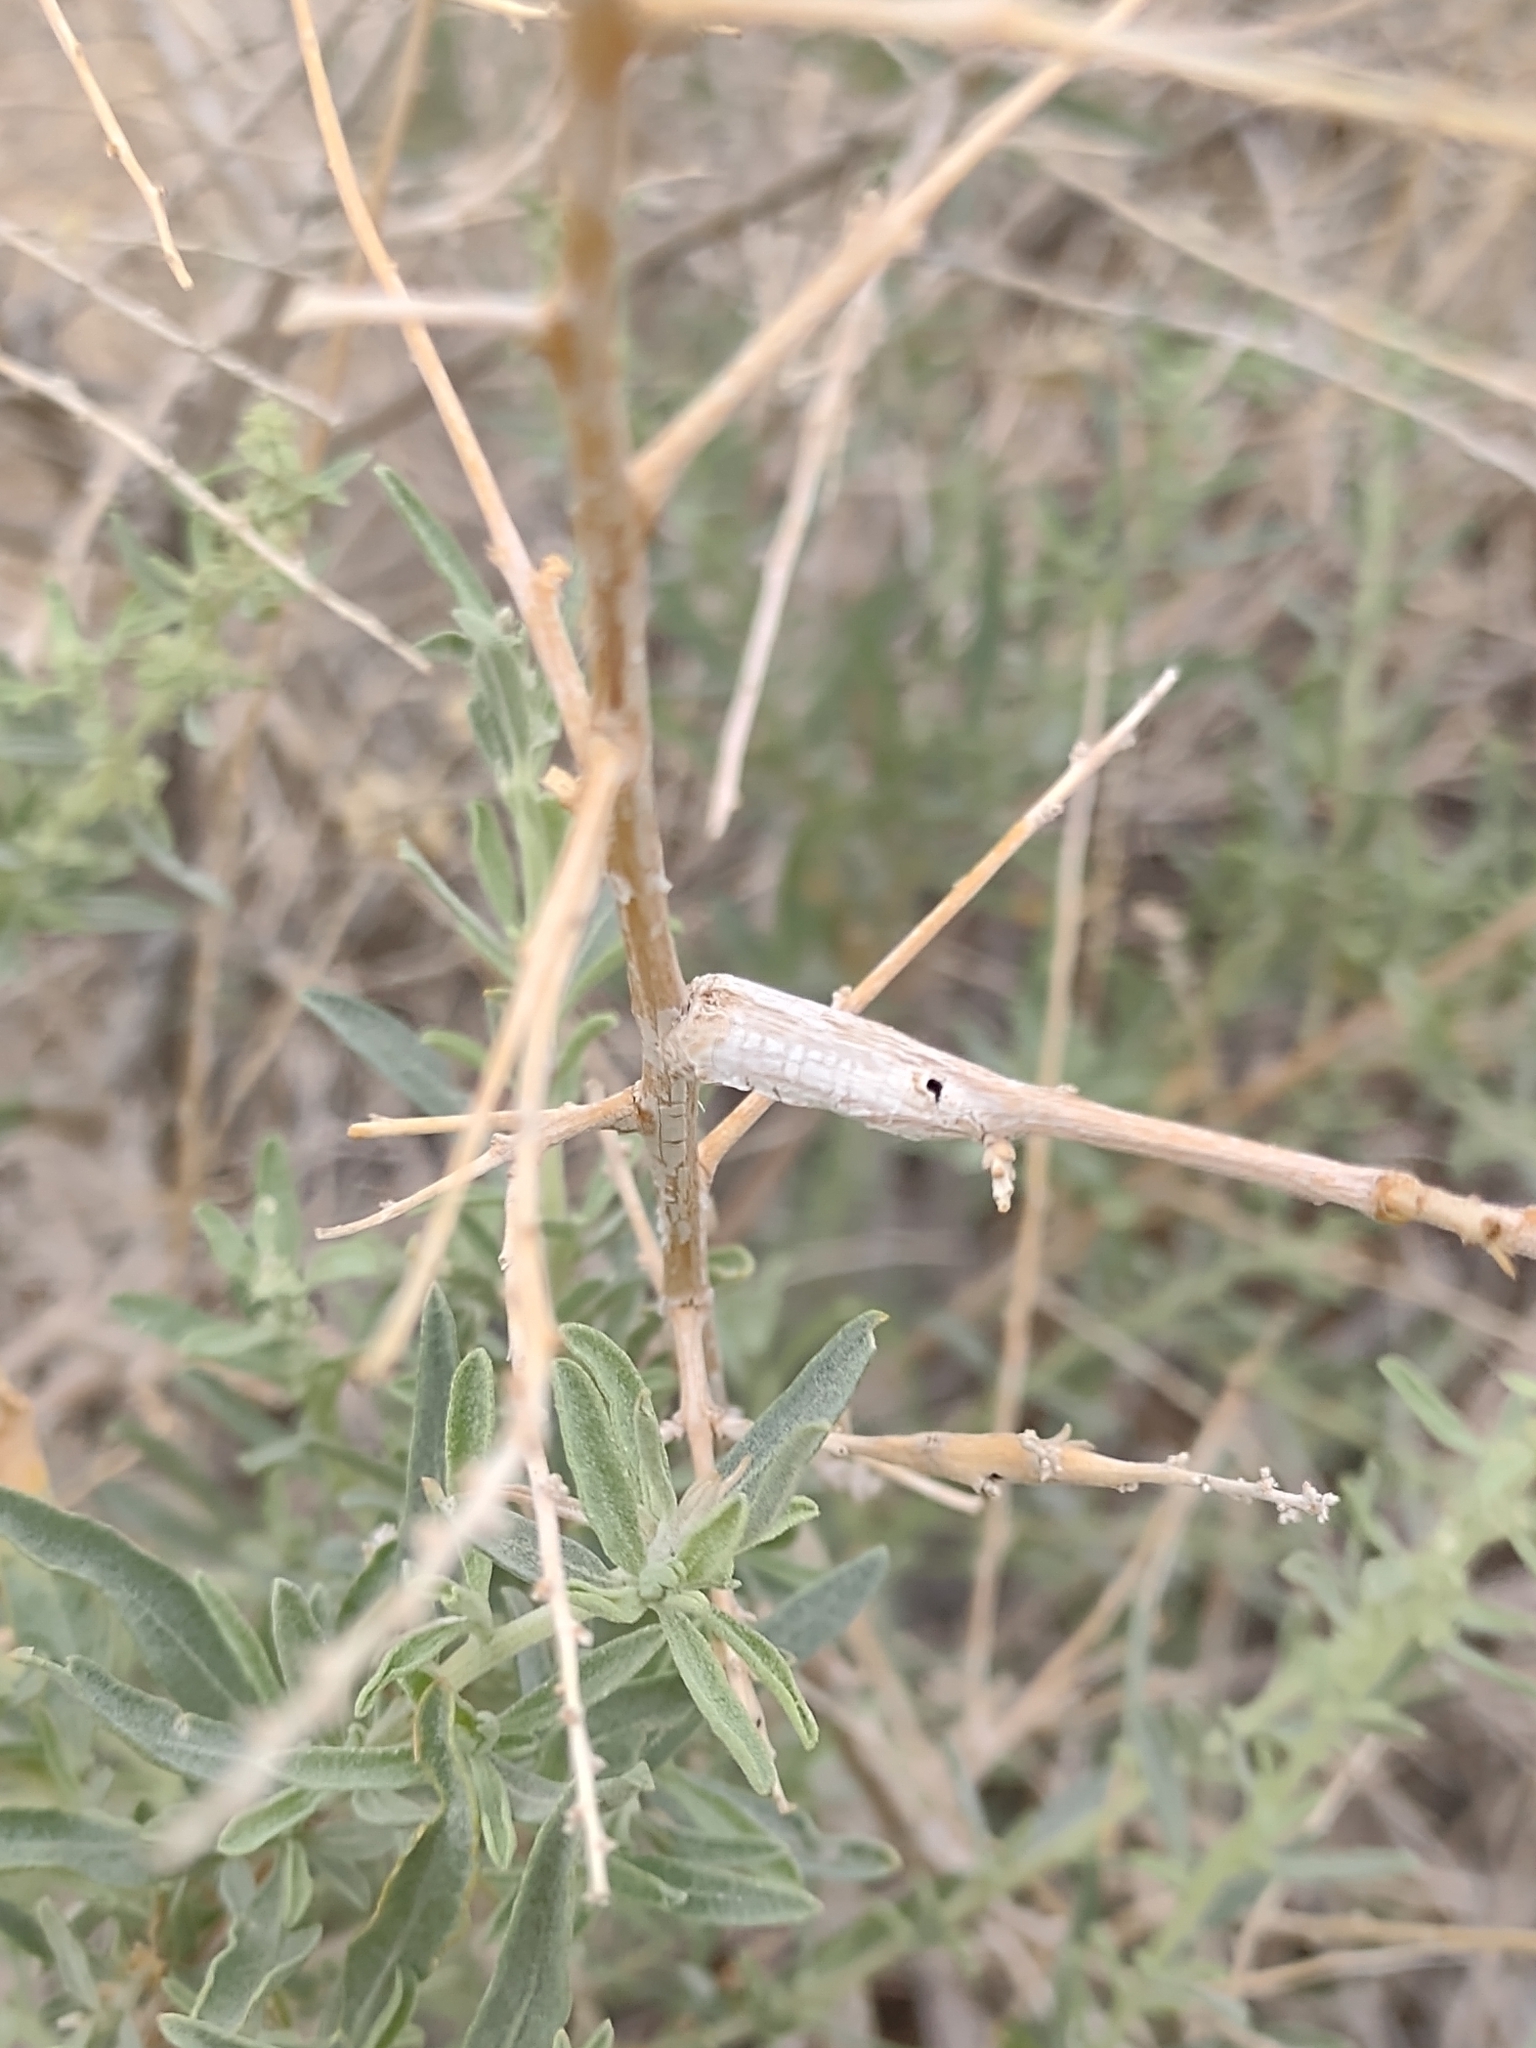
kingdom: Animalia
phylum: Arthropoda
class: Insecta
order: Diptera
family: Cecidomyiidae
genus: Neolasioptera
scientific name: Neolasioptera willistoni
